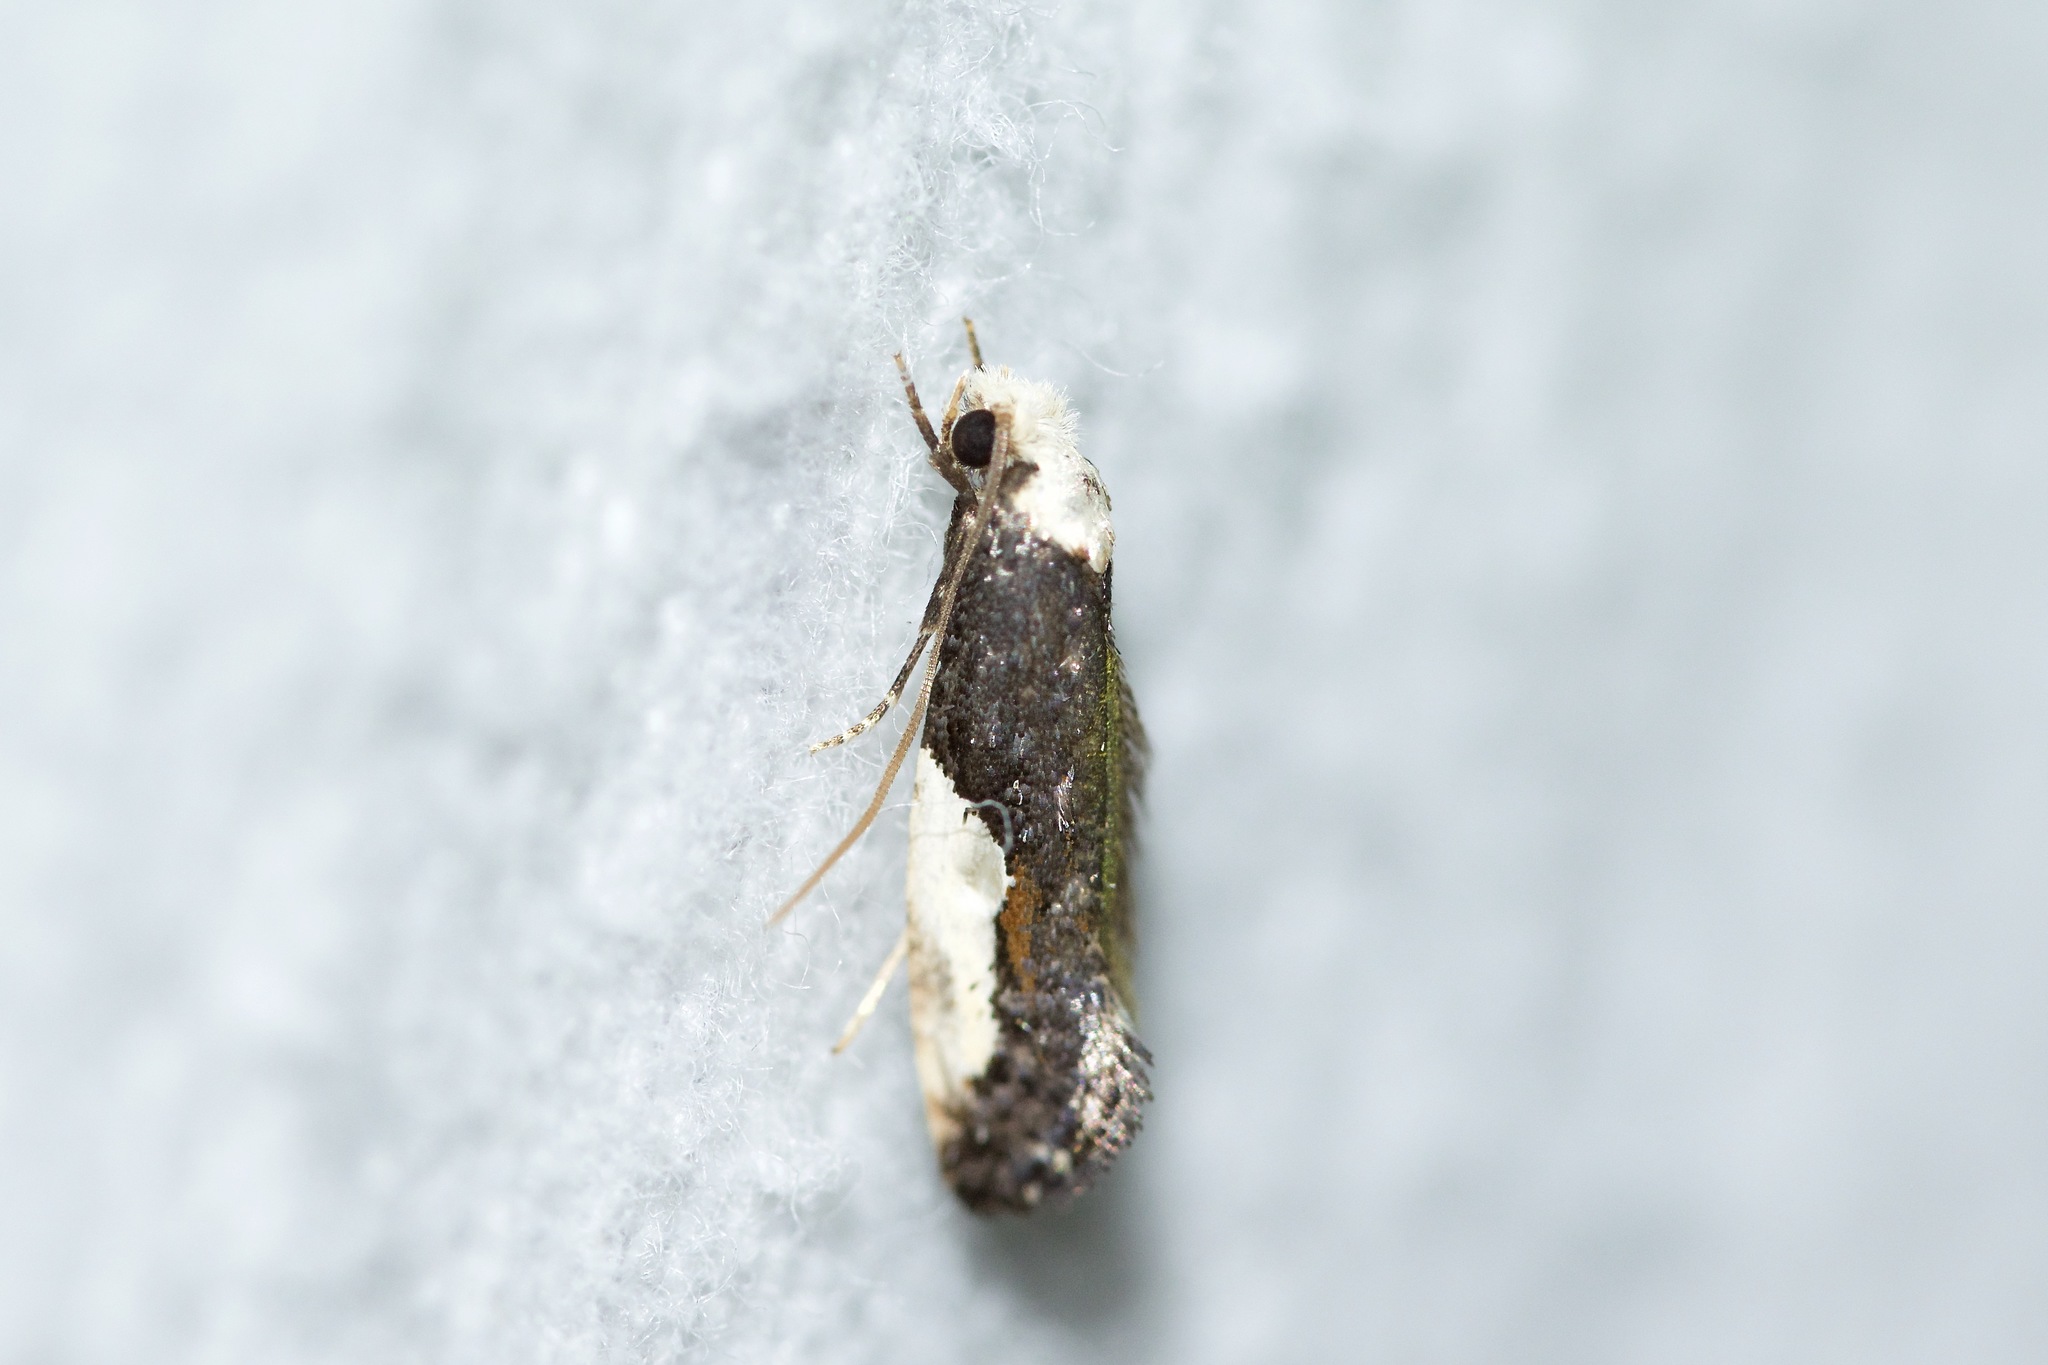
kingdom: Animalia
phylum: Arthropoda
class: Insecta
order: Lepidoptera
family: Tineidae
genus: Monopis
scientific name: Monopis longella
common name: Pavlovski's monopis moth
